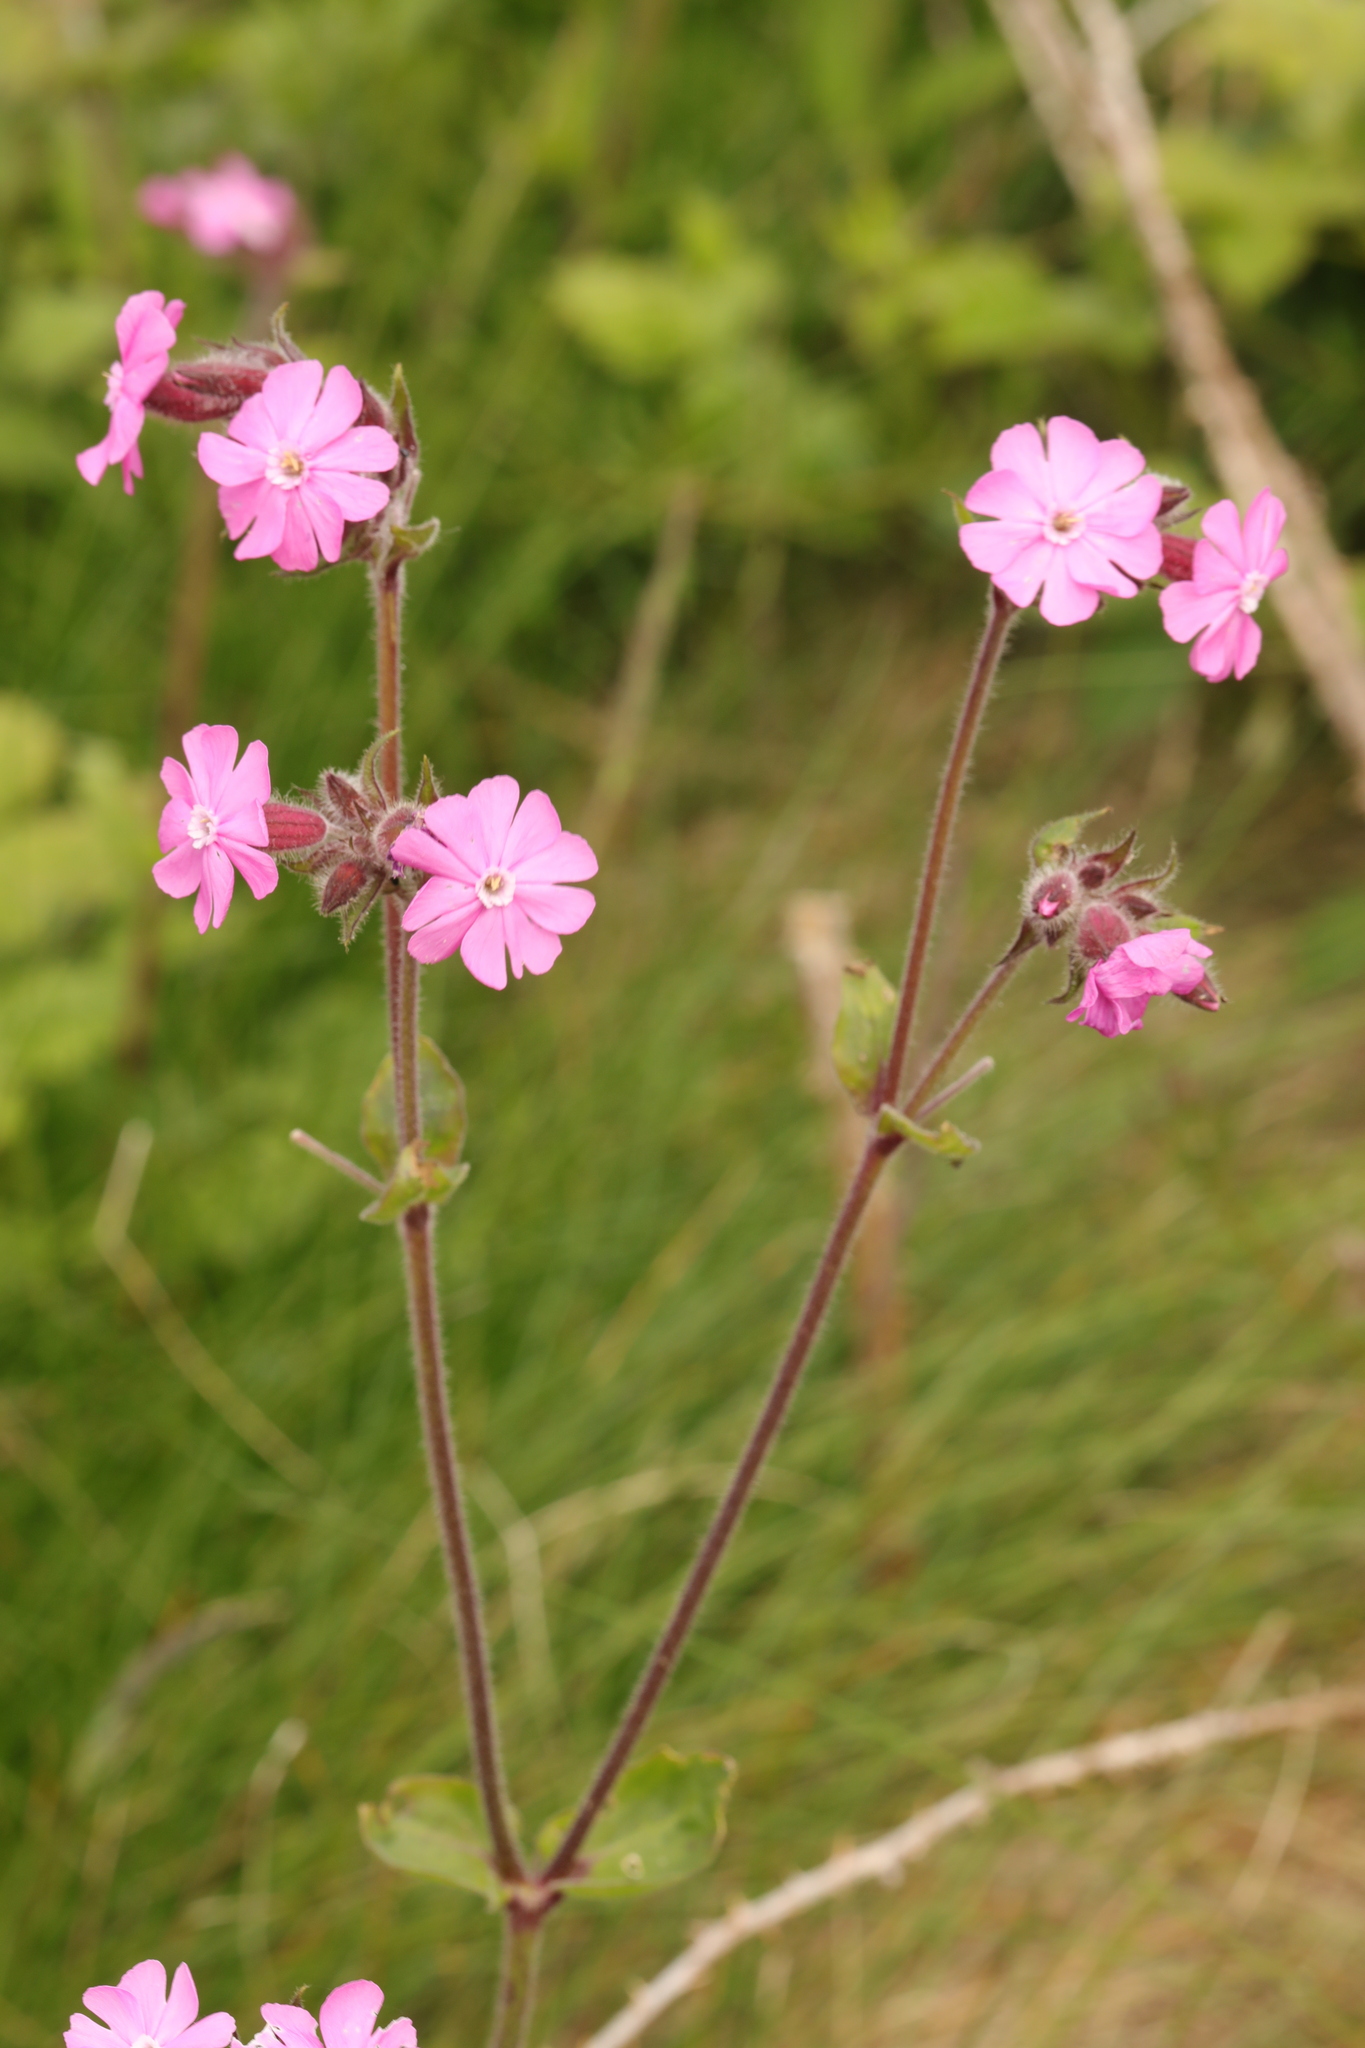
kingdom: Plantae
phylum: Tracheophyta
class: Magnoliopsida
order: Caryophyllales
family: Caryophyllaceae
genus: Silene
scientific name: Silene dioica
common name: Red campion
